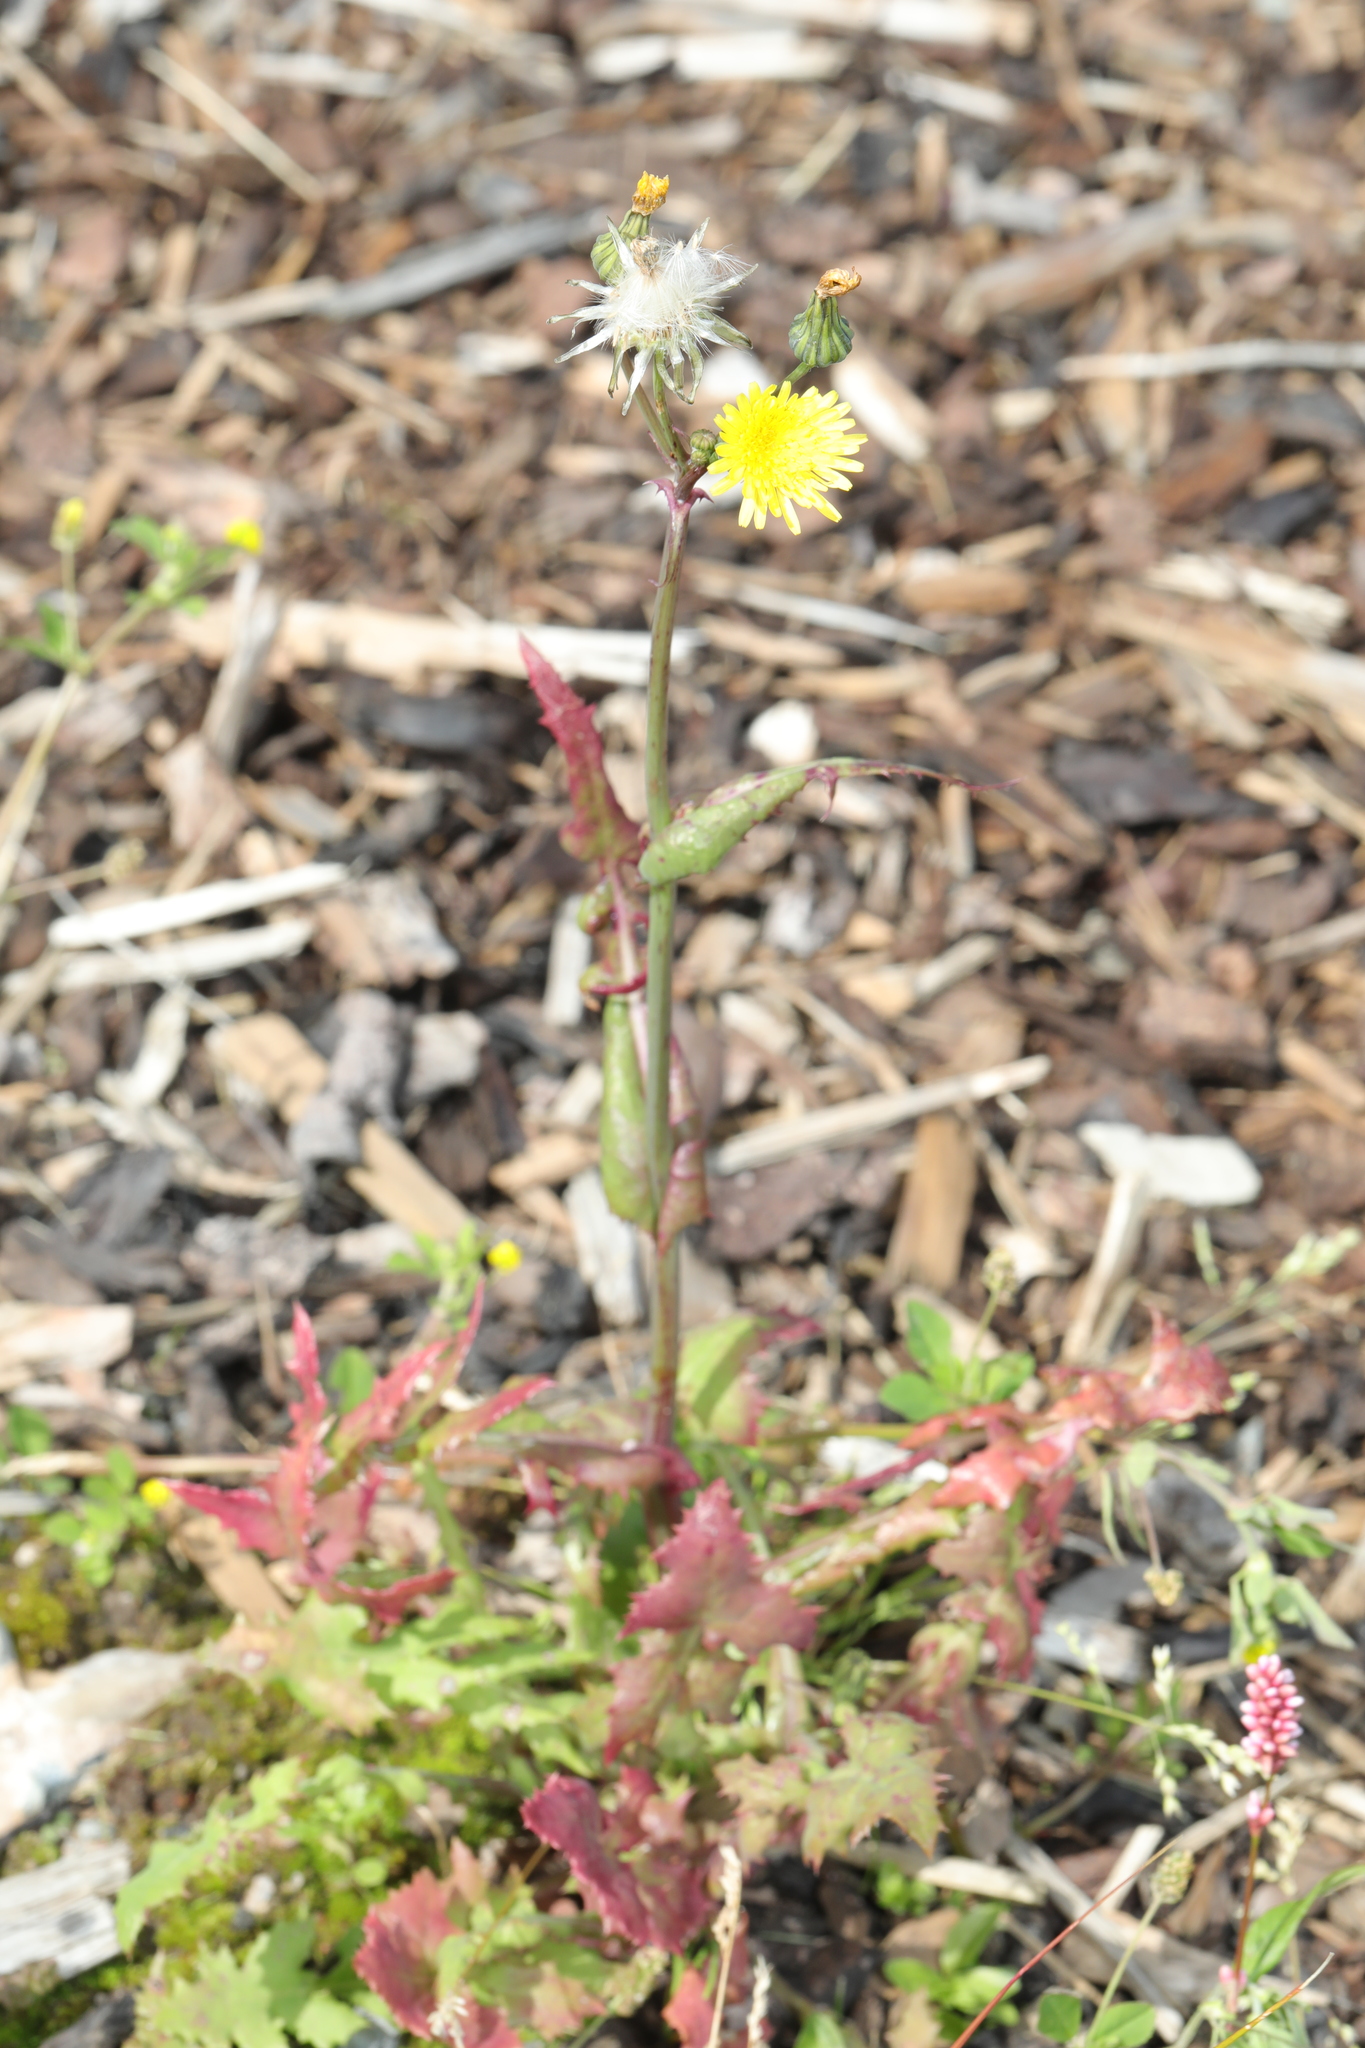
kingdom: Plantae
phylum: Tracheophyta
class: Magnoliopsida
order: Asterales
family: Asteraceae
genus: Sonchus
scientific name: Sonchus oleraceus
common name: Common sowthistle
